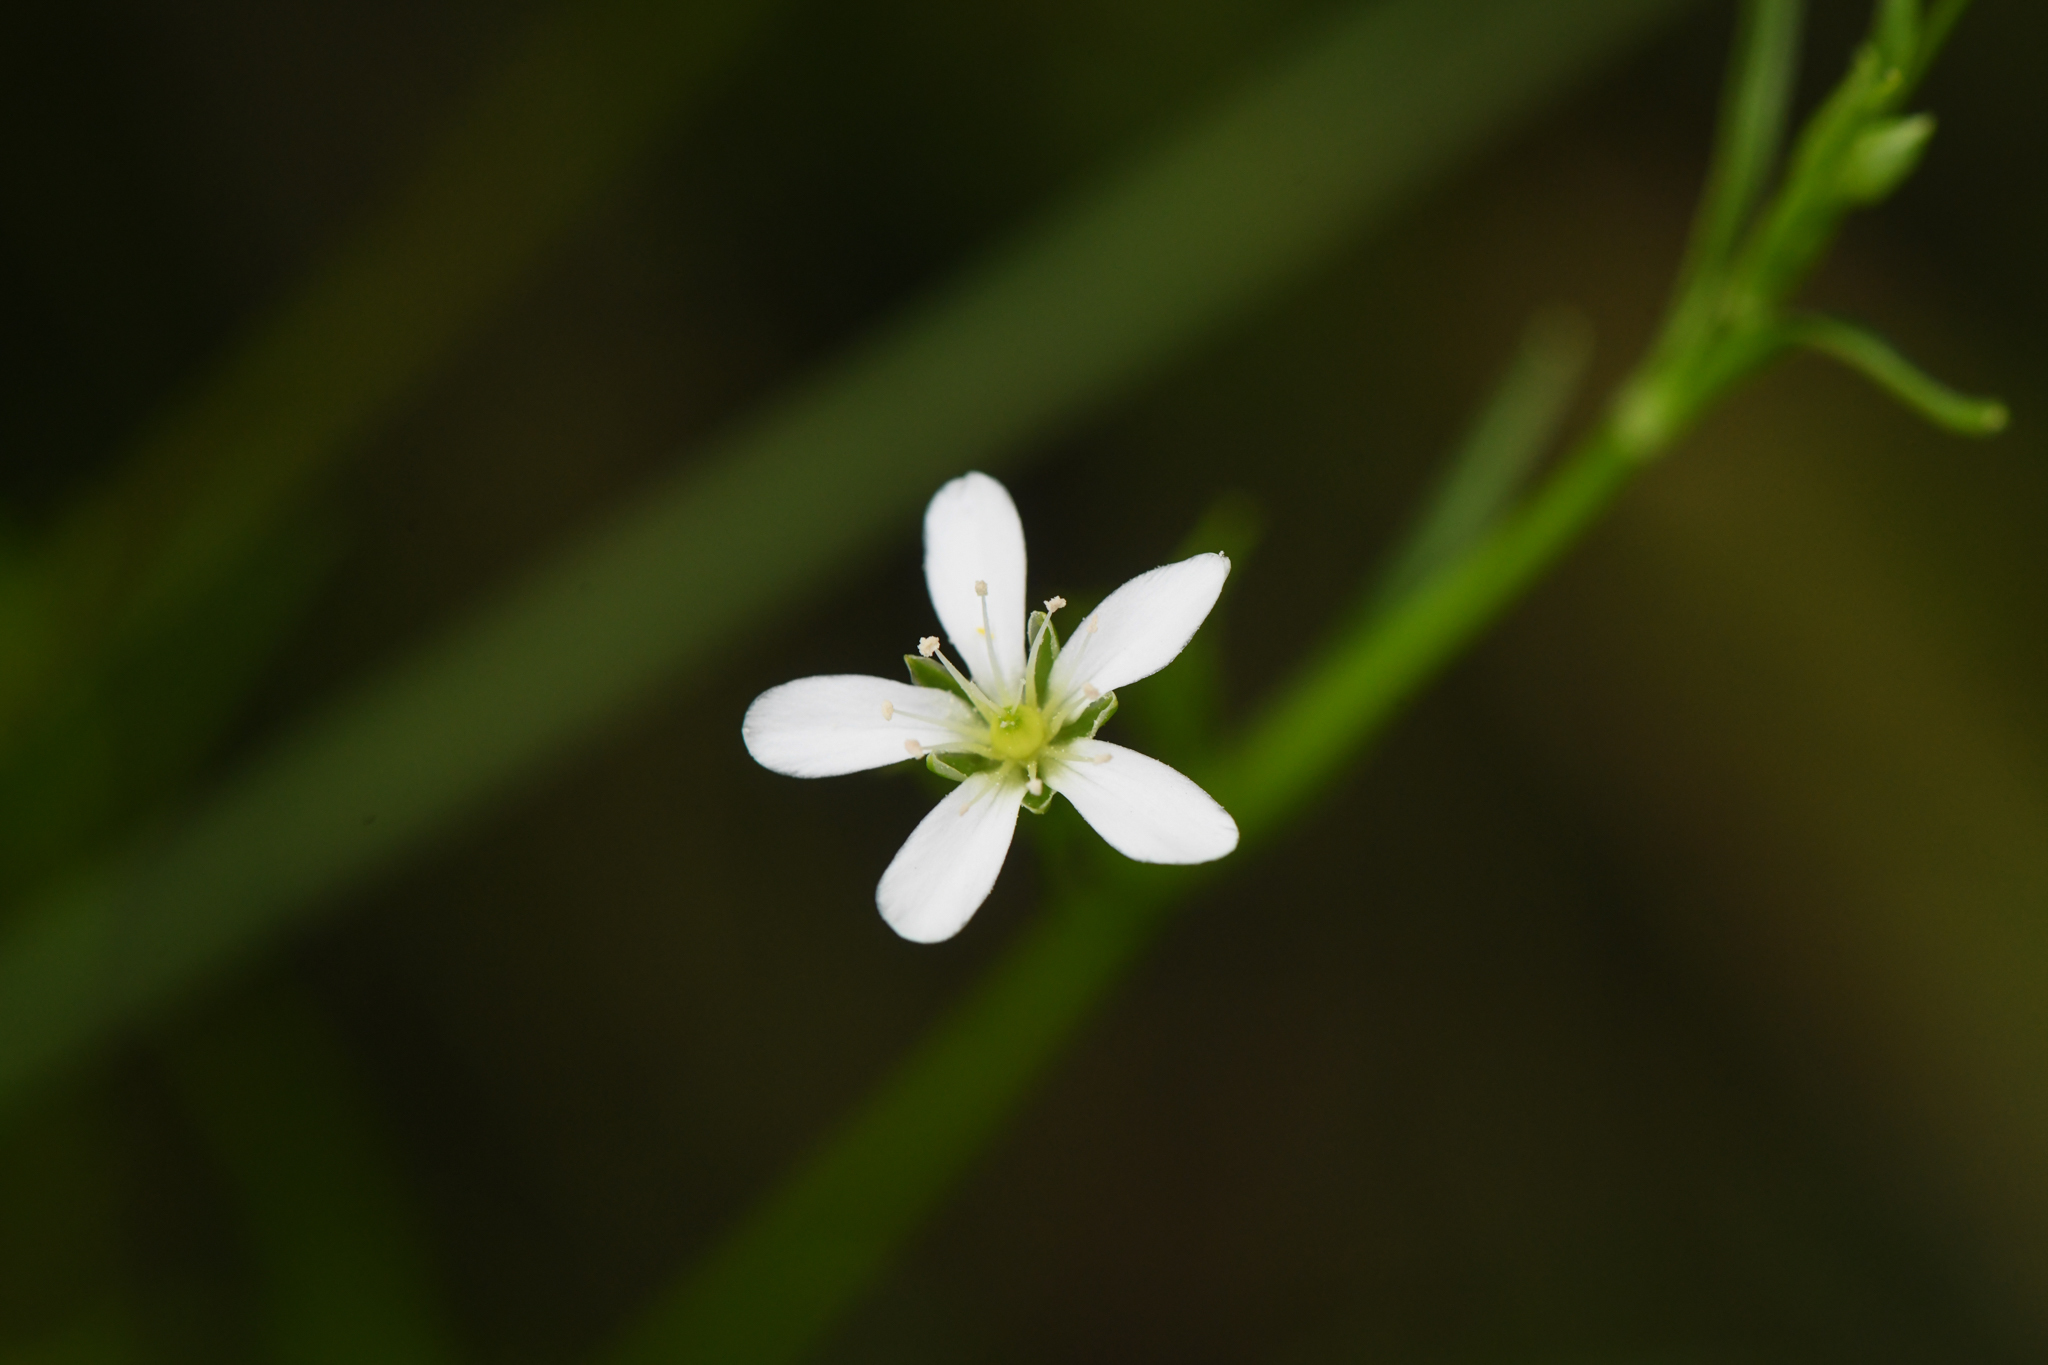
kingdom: Plantae
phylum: Tracheophyta
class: Magnoliopsida
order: Caryophyllales
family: Caryophyllaceae
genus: Arenaria
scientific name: Arenaria paludicola
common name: Marsh sandwort
